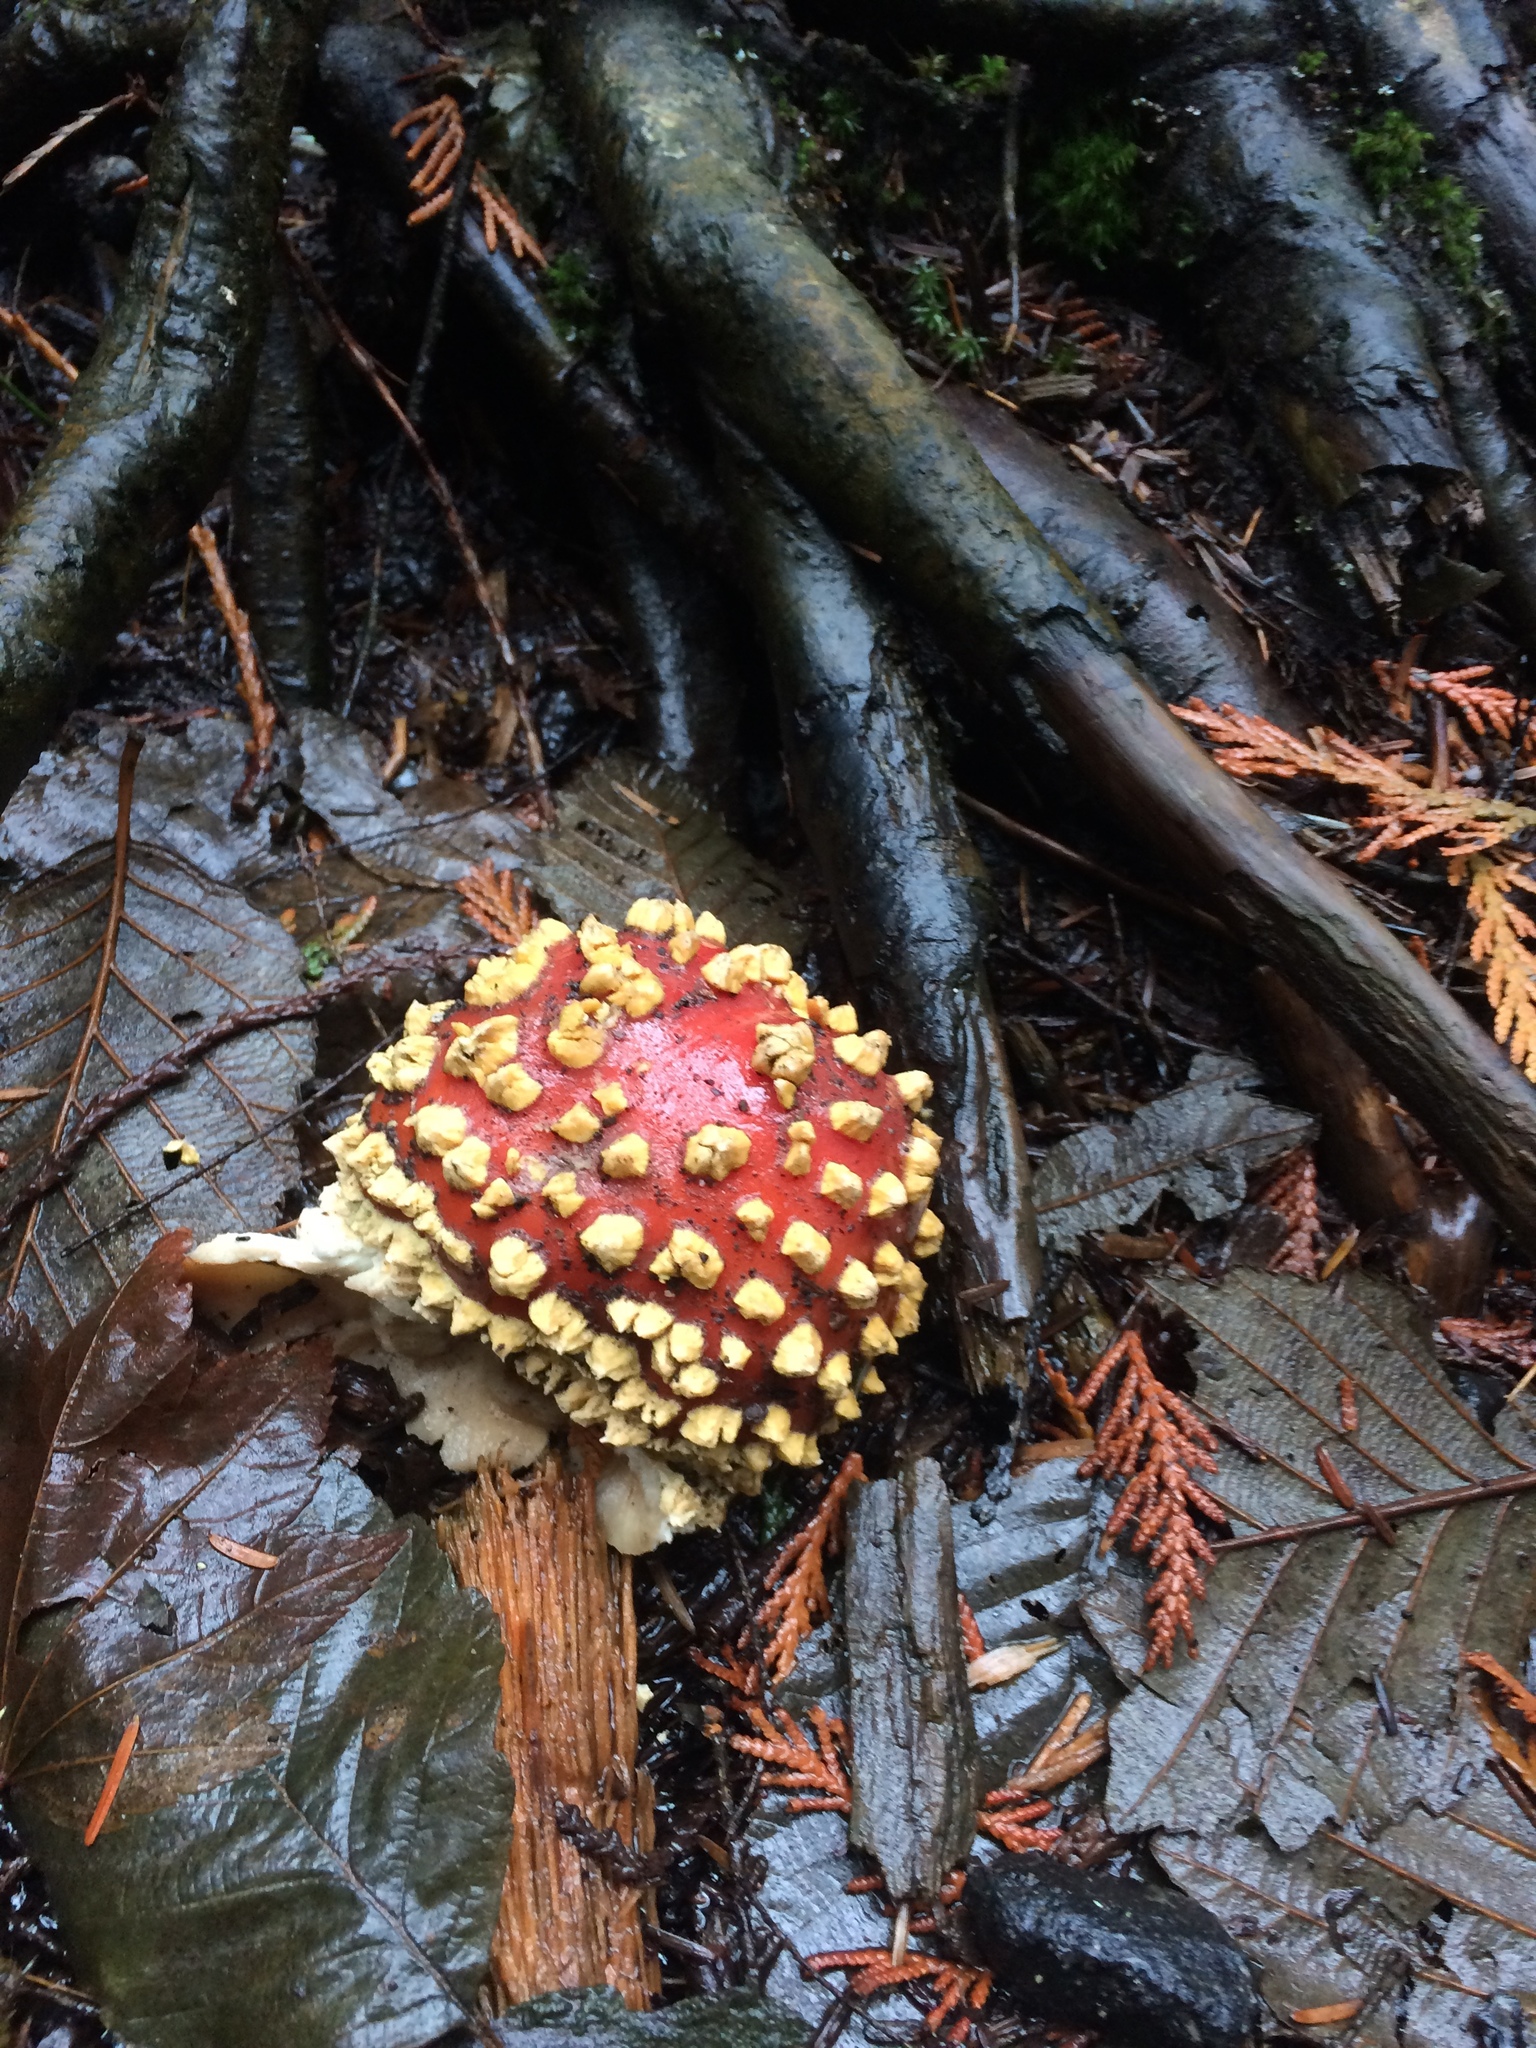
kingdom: Fungi
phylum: Basidiomycota
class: Agaricomycetes
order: Agaricales
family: Amanitaceae
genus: Amanita
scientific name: Amanita muscaria
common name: Fly agaric
